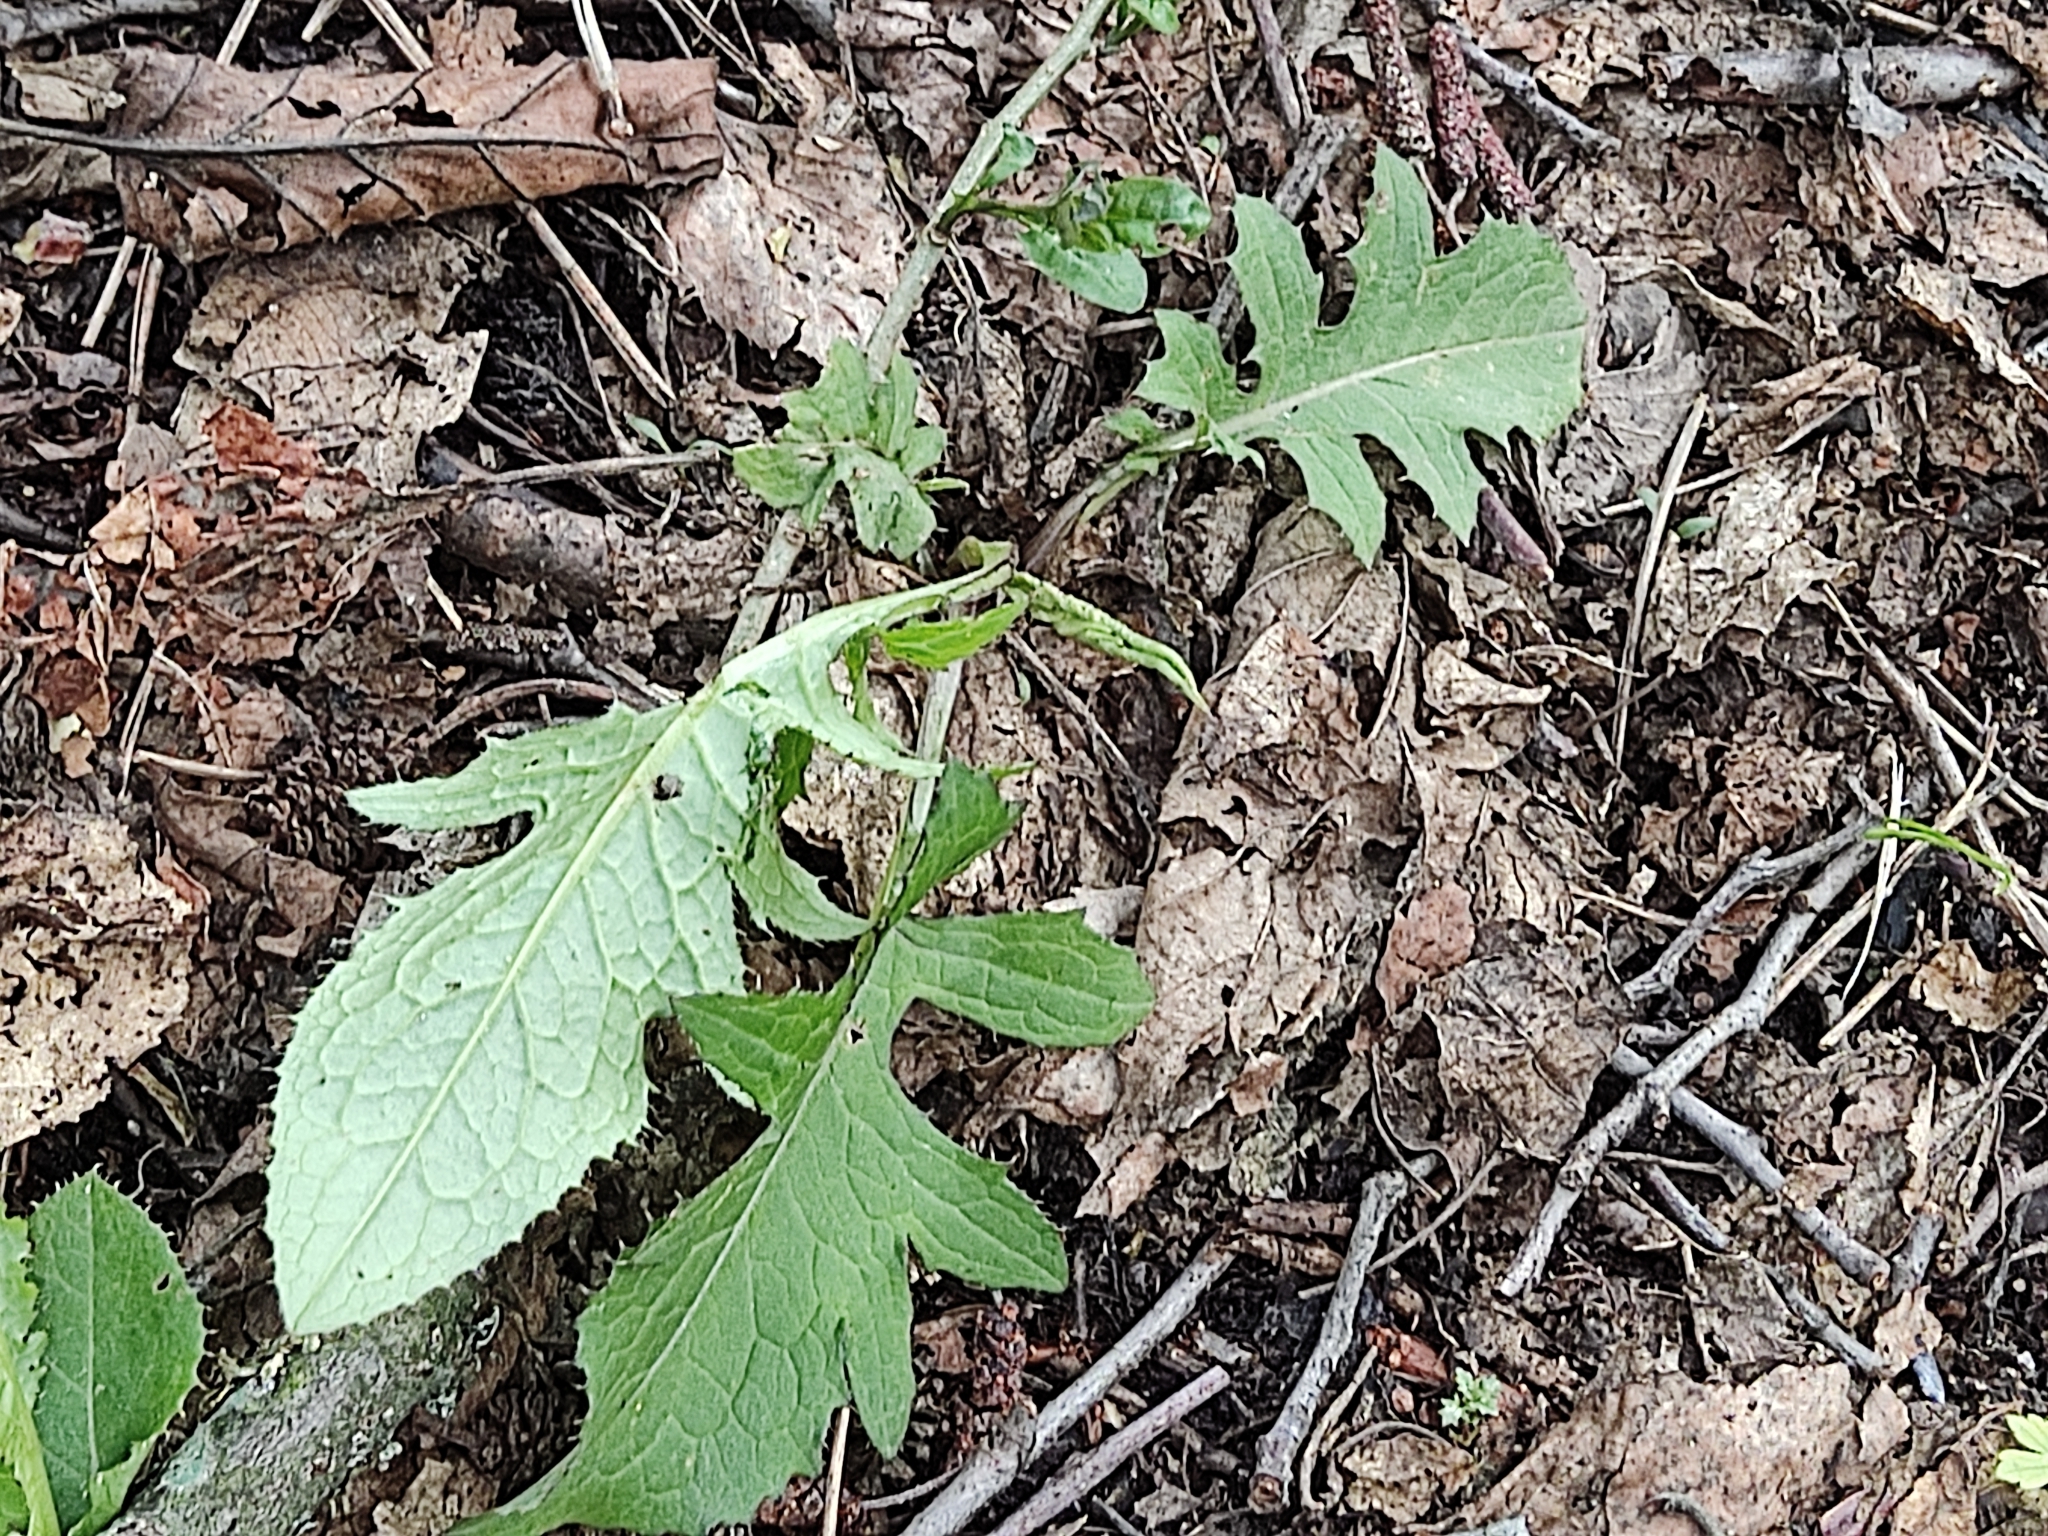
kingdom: Plantae
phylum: Tracheophyta
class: Magnoliopsida
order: Asterales
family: Asteraceae
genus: Cirsium
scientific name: Cirsium oleraceum
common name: Cabbage thistle
